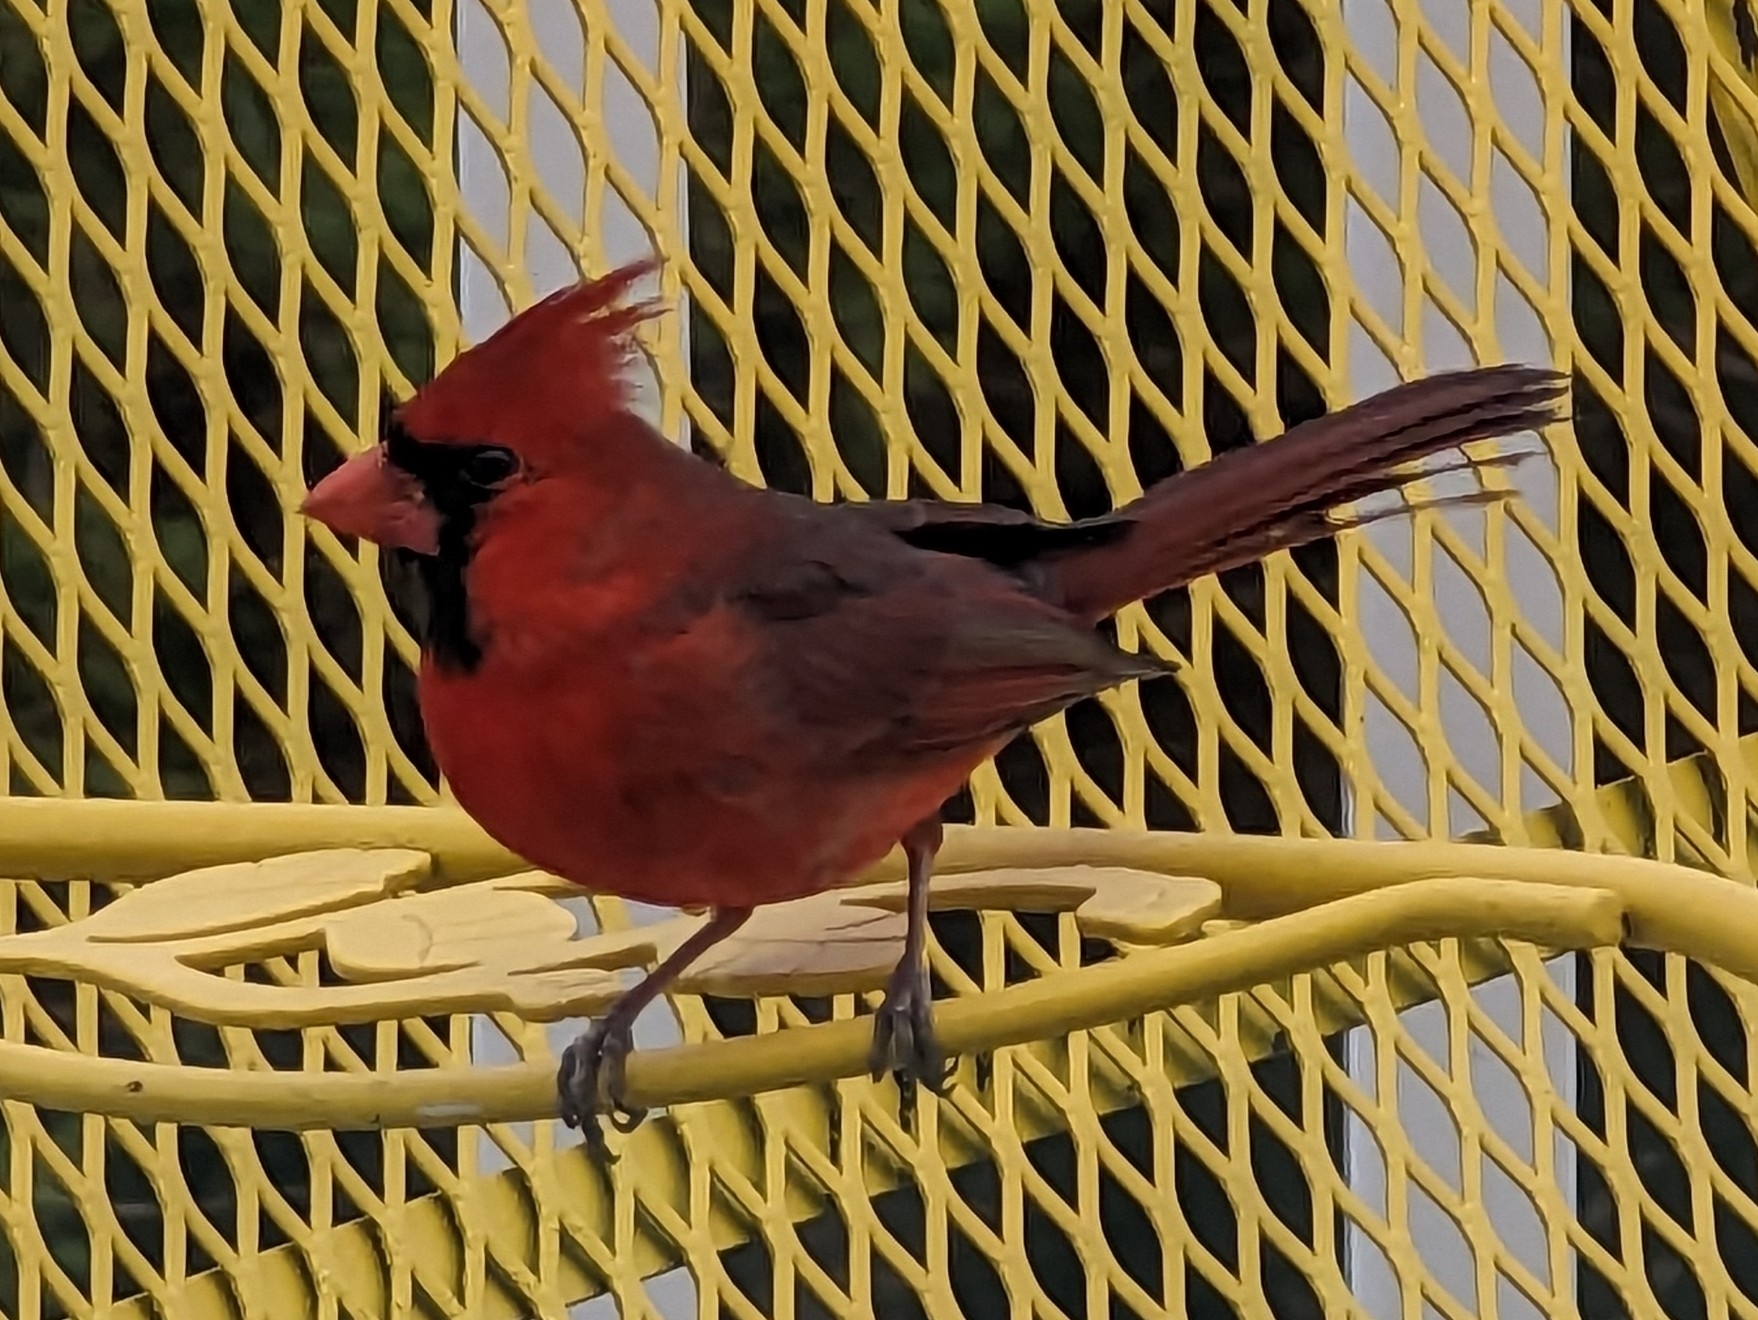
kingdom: Animalia
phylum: Chordata
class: Aves
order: Passeriformes
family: Cardinalidae
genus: Cardinalis
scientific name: Cardinalis cardinalis
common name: Northern cardinal
